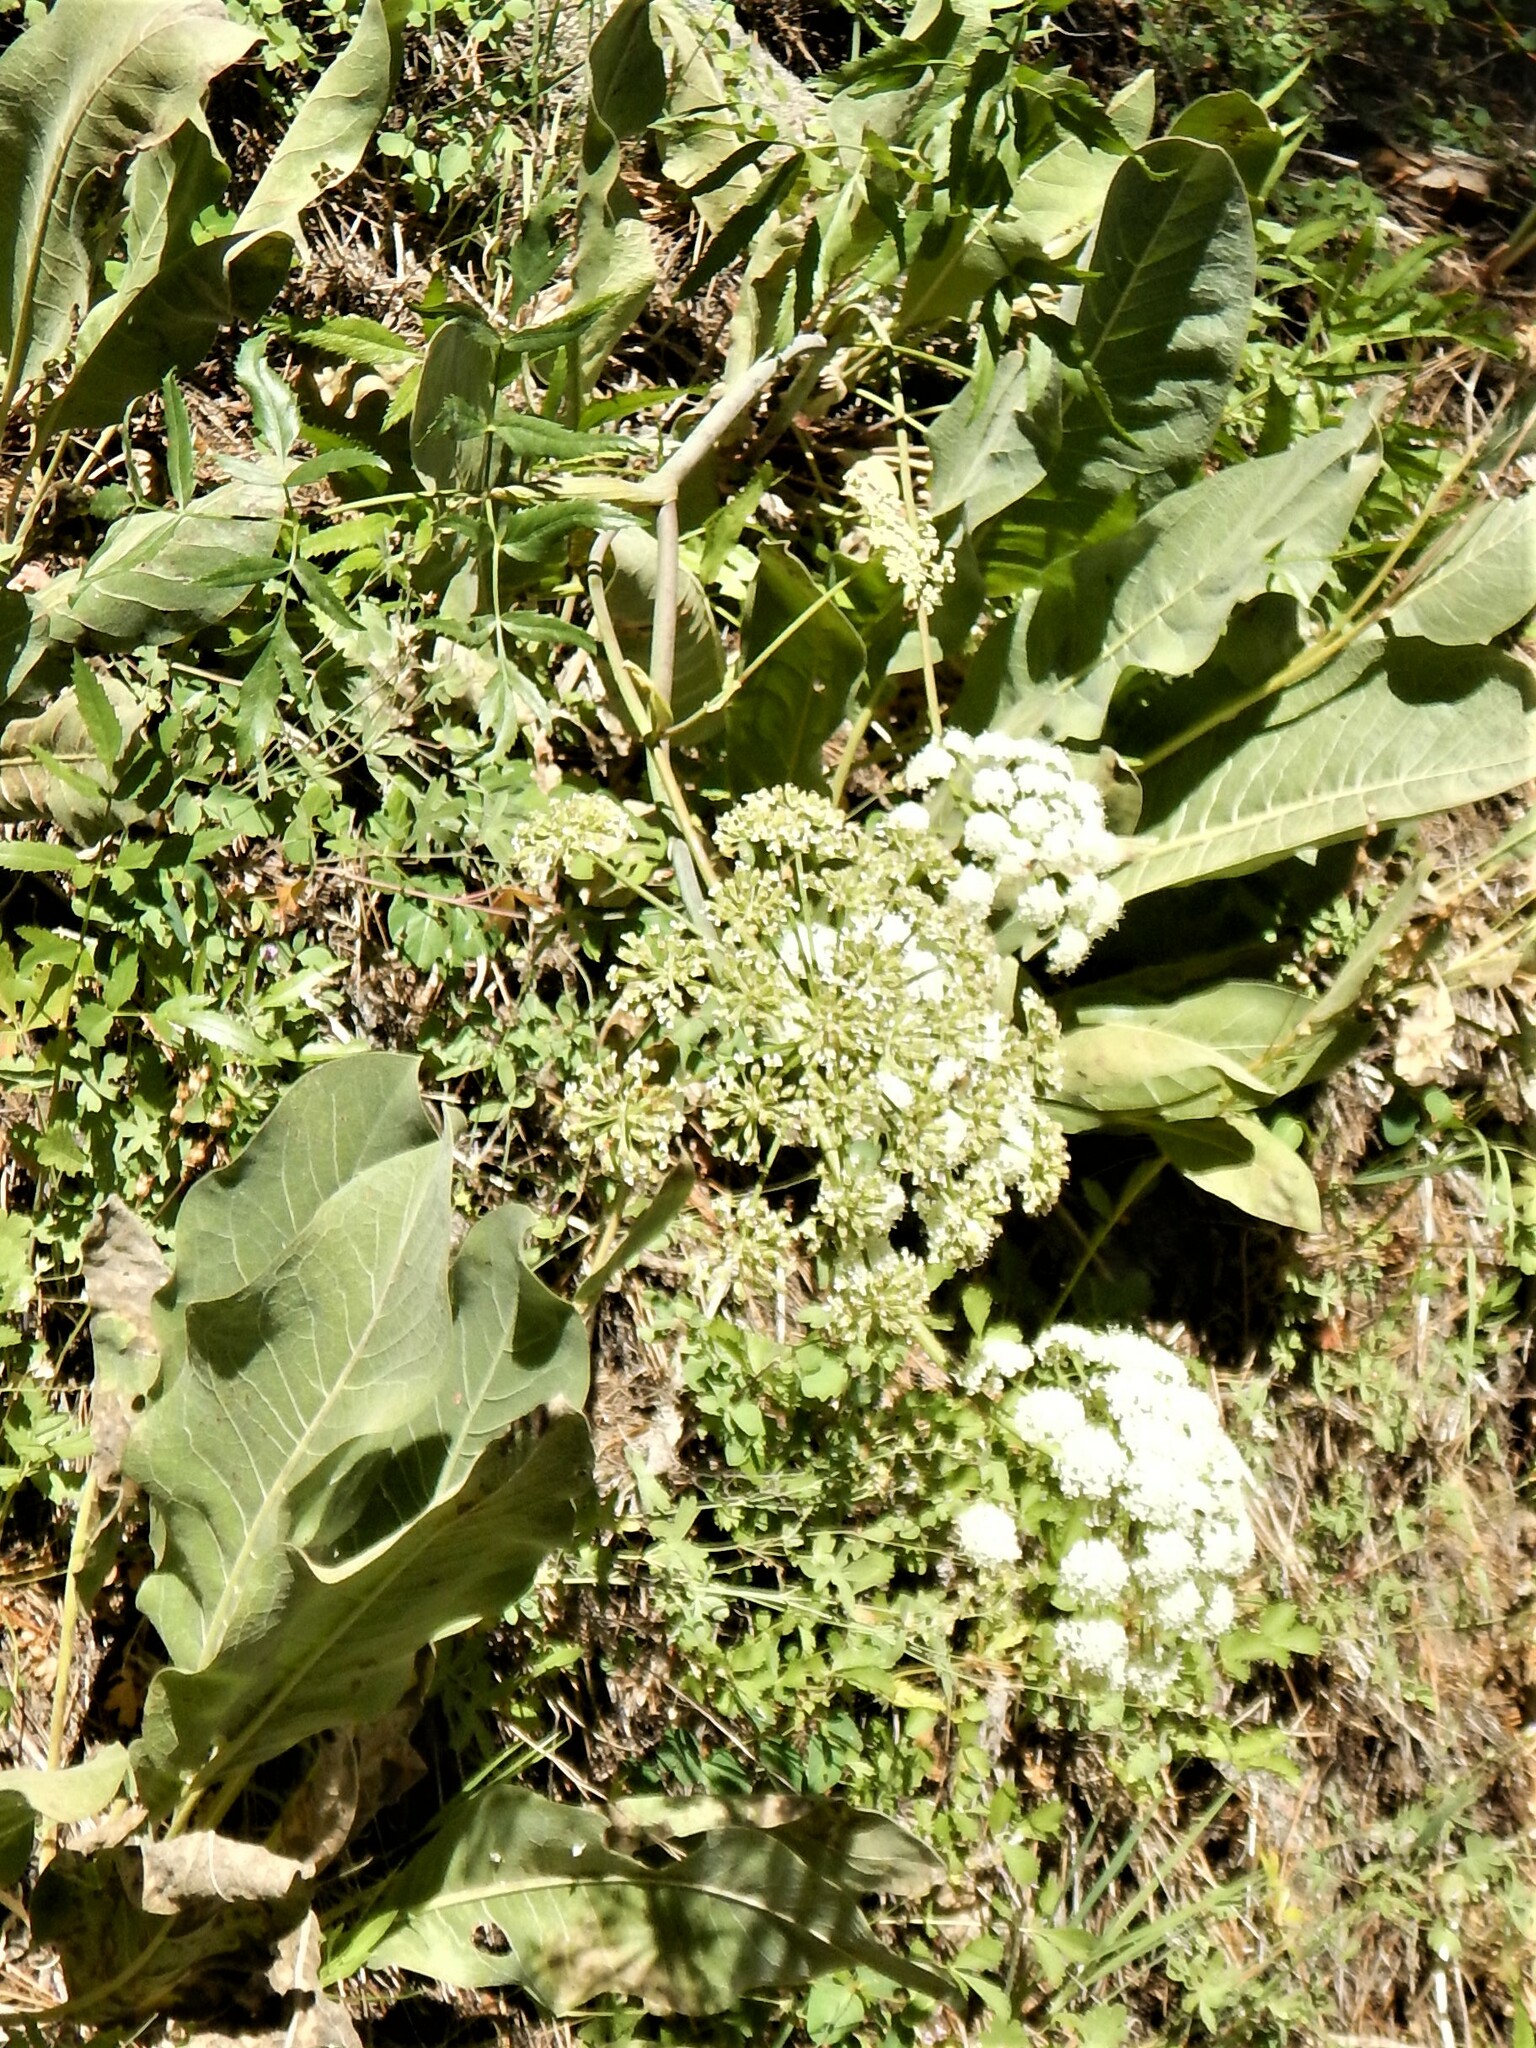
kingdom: Plantae
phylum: Tracheophyta
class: Magnoliopsida
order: Apiales
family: Apiaceae
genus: Angelica
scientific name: Angelica breweri
